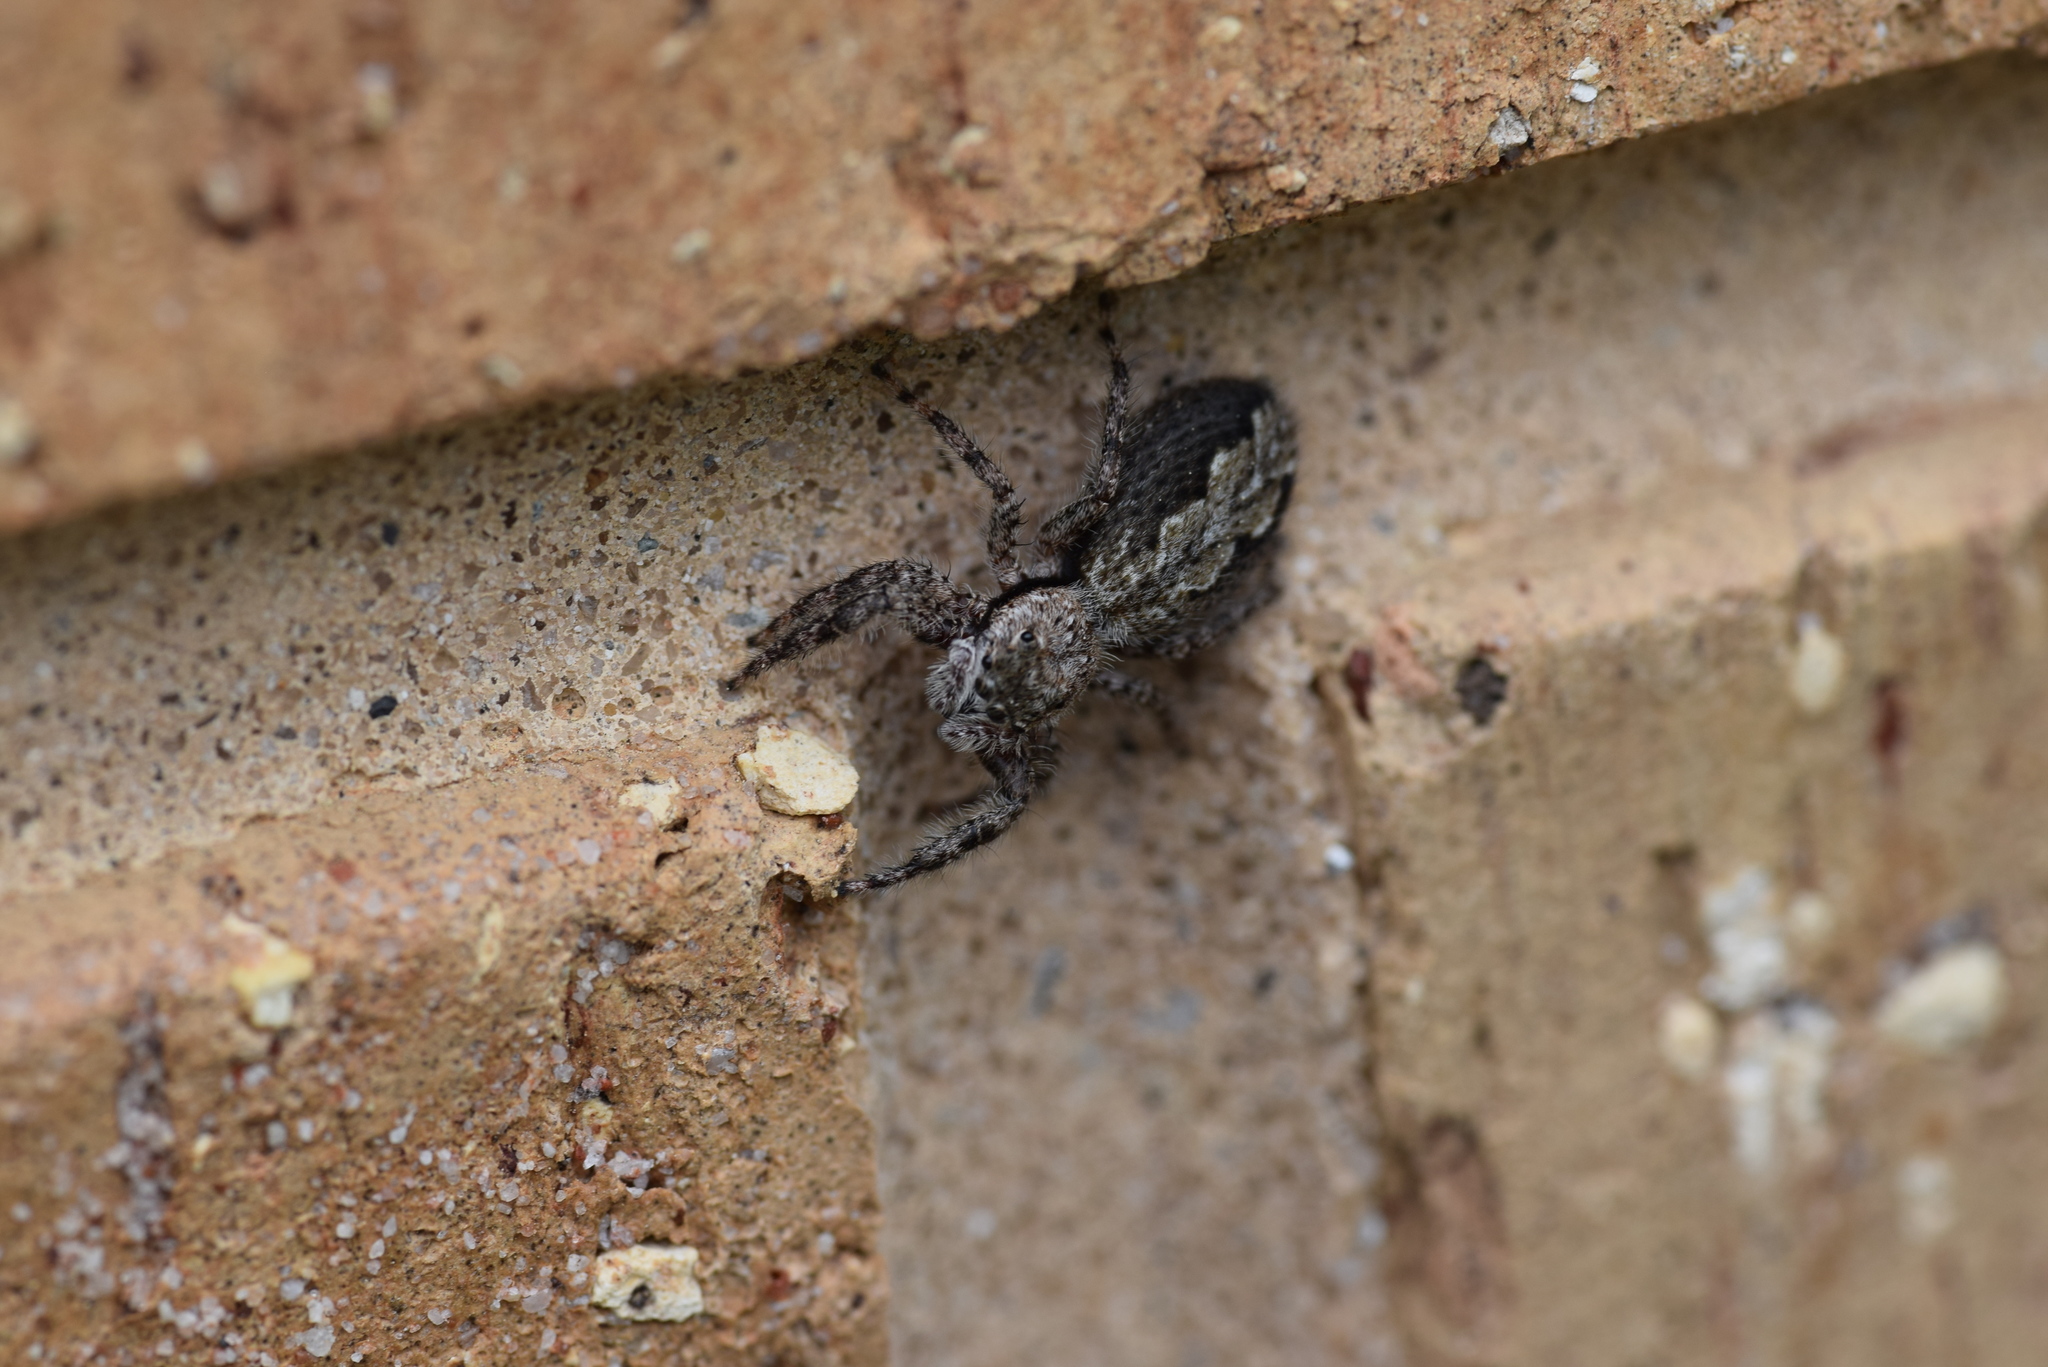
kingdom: Animalia
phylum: Arthropoda
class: Arachnida
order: Araneae
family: Salticidae
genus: Platycryptus
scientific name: Platycryptus undatus
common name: Tan jumping spider
